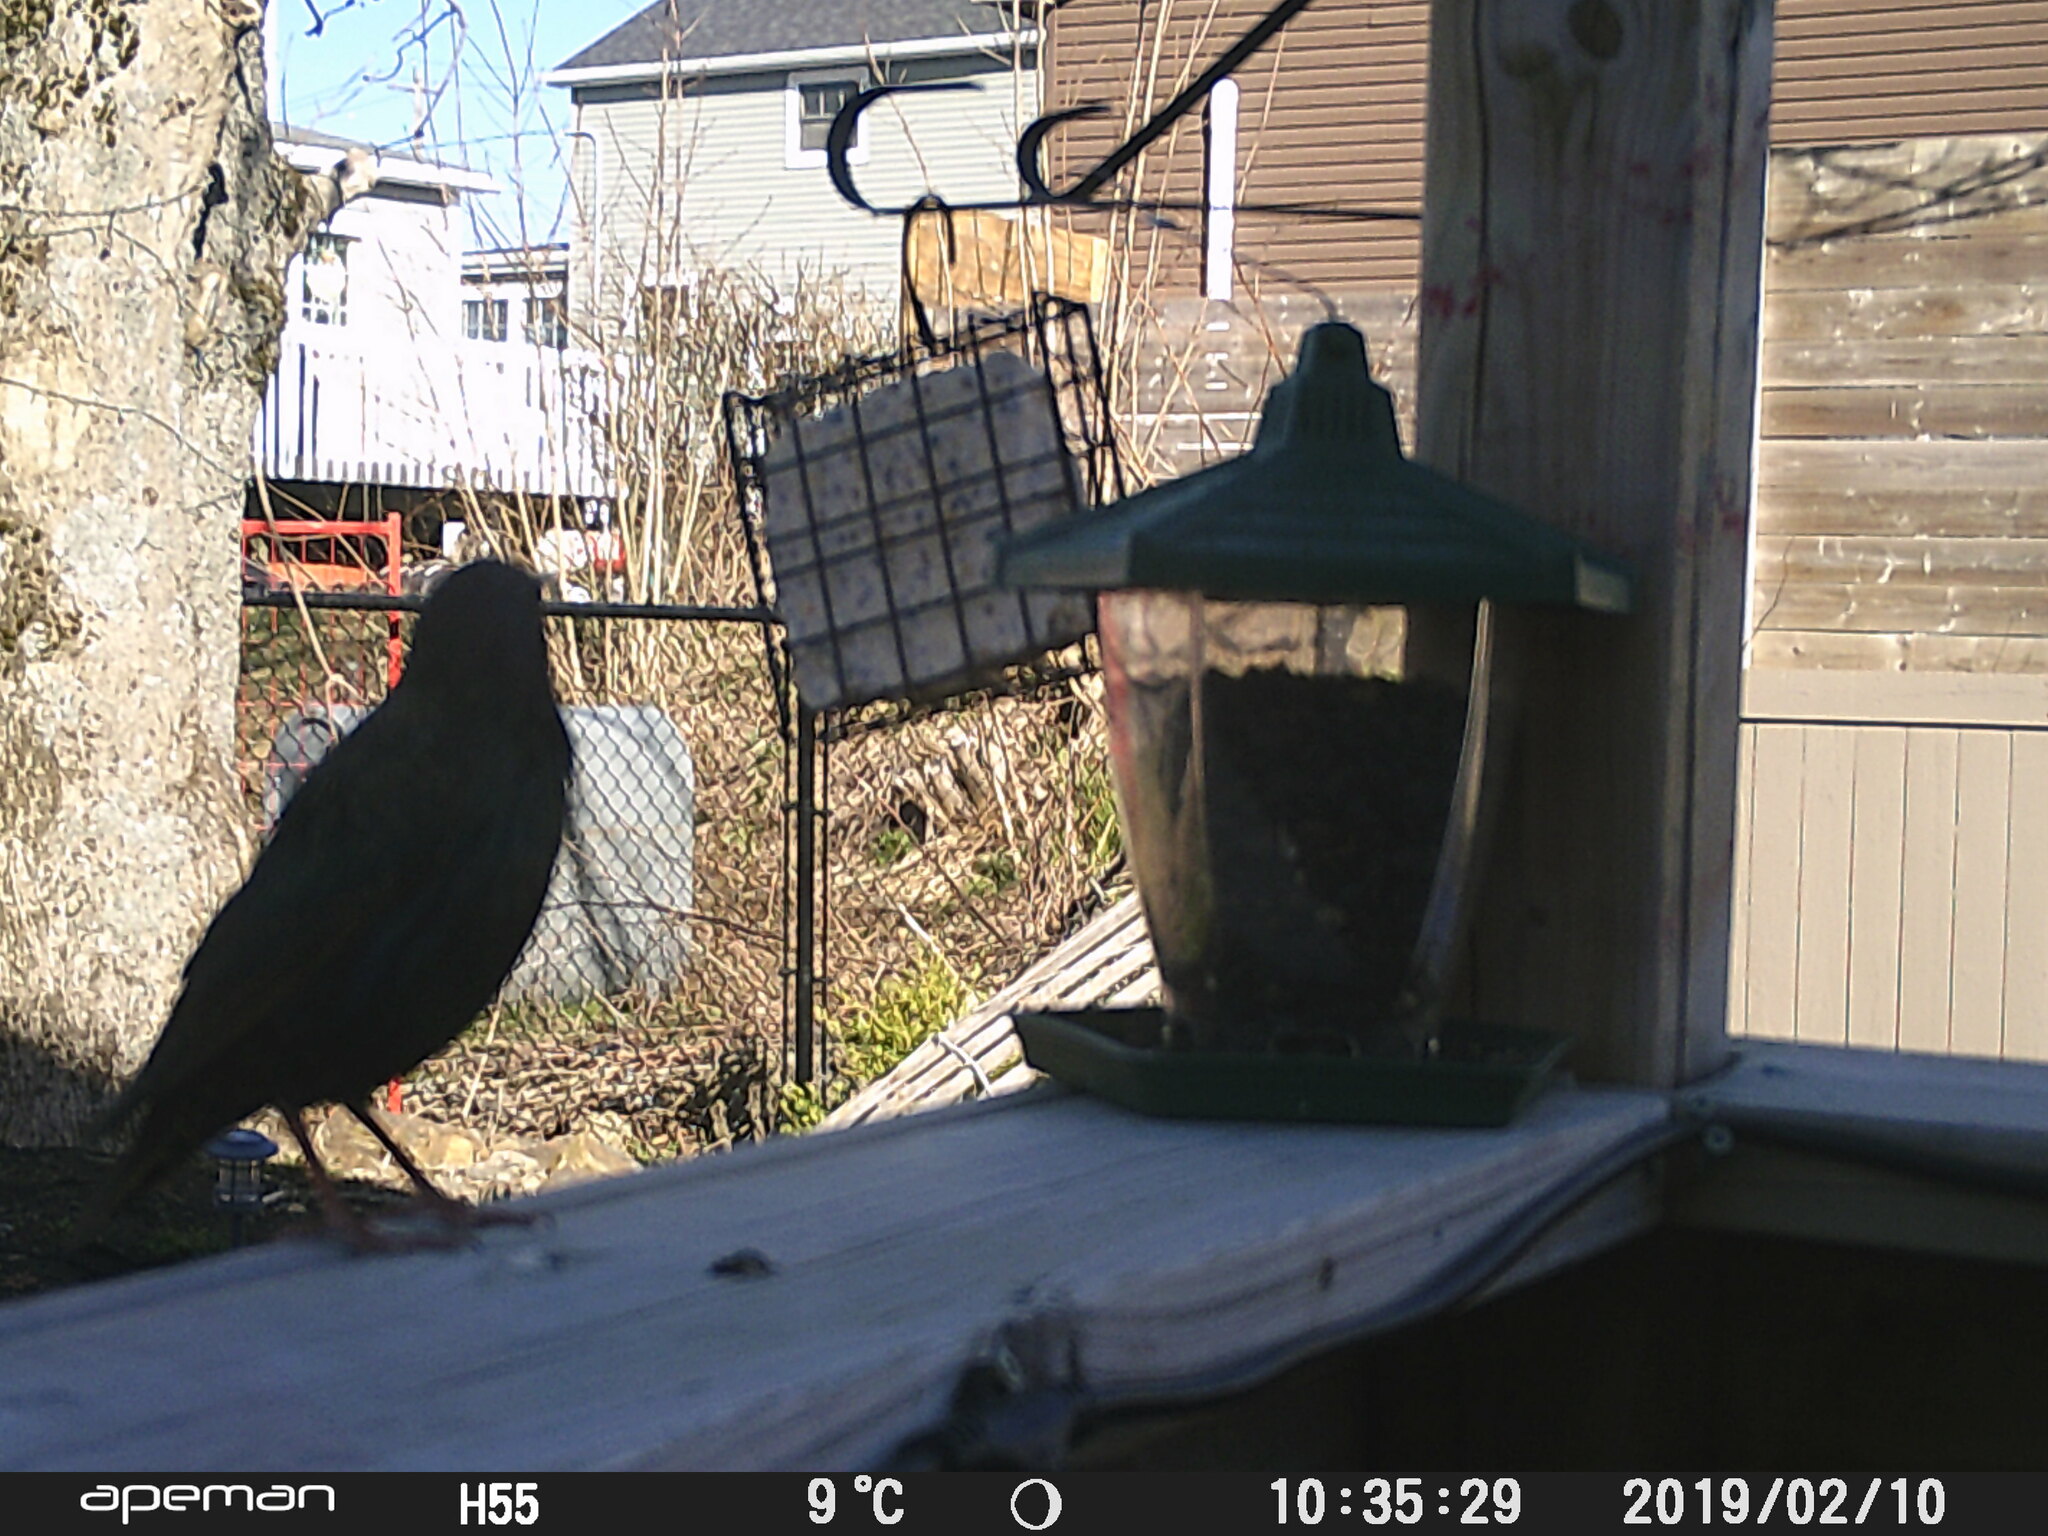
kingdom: Animalia
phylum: Chordata
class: Aves
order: Passeriformes
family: Sturnidae
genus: Sturnus
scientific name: Sturnus vulgaris
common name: Common starling
